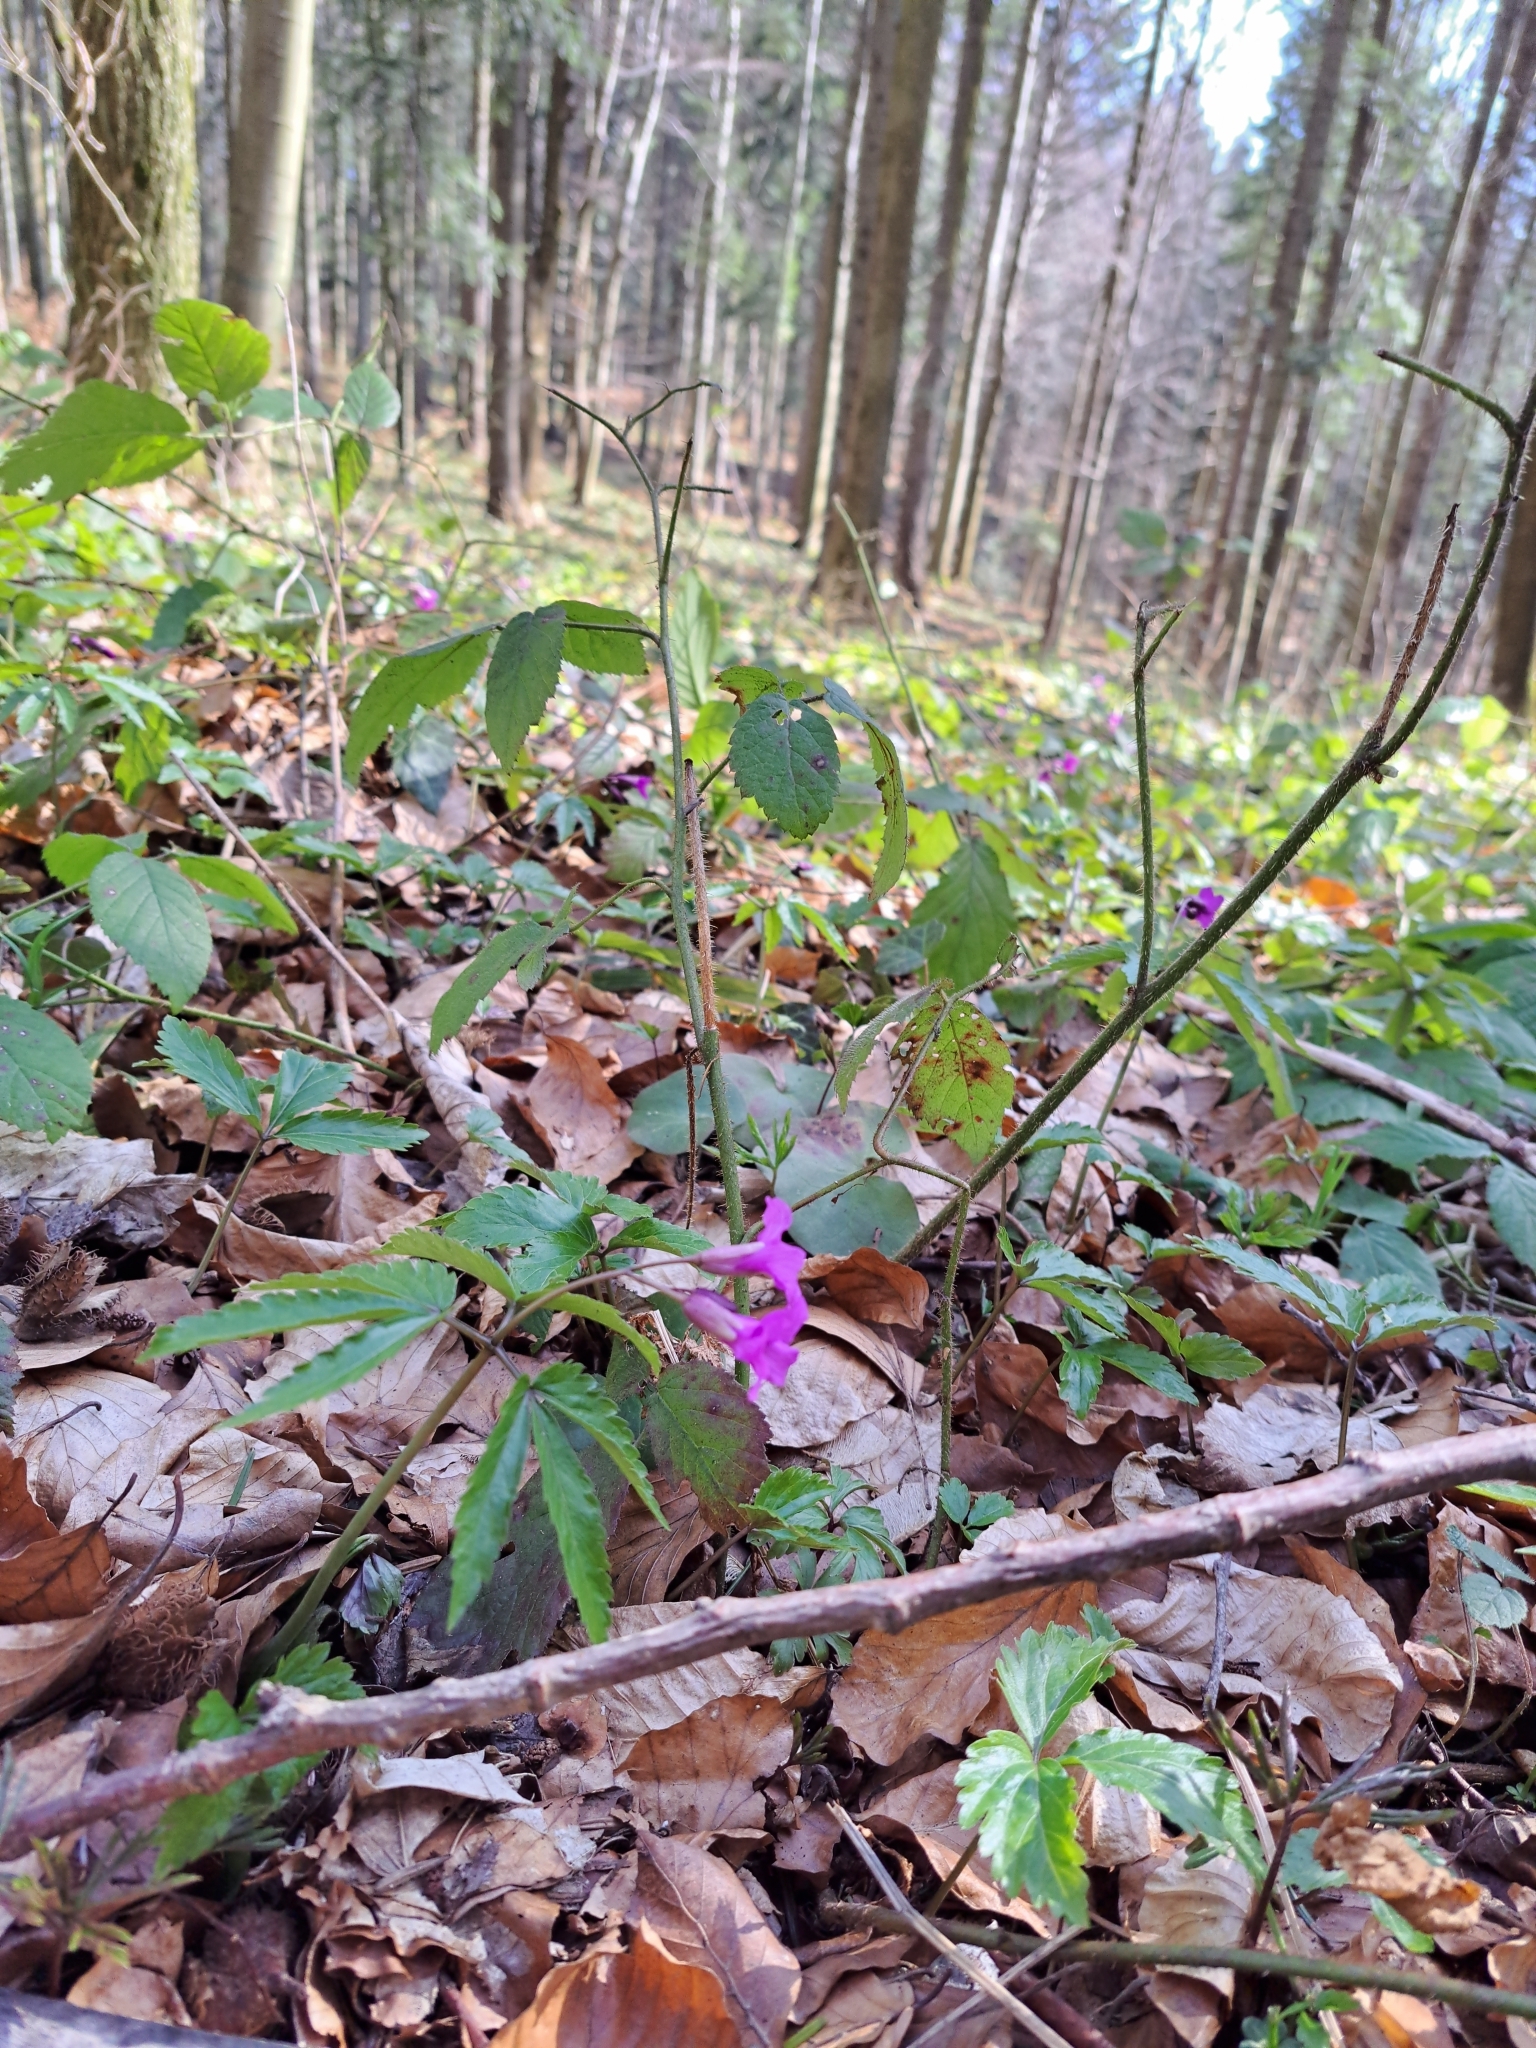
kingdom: Plantae
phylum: Tracheophyta
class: Magnoliopsida
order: Brassicales
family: Brassicaceae
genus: Cardamine
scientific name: Cardamine glanduligera
